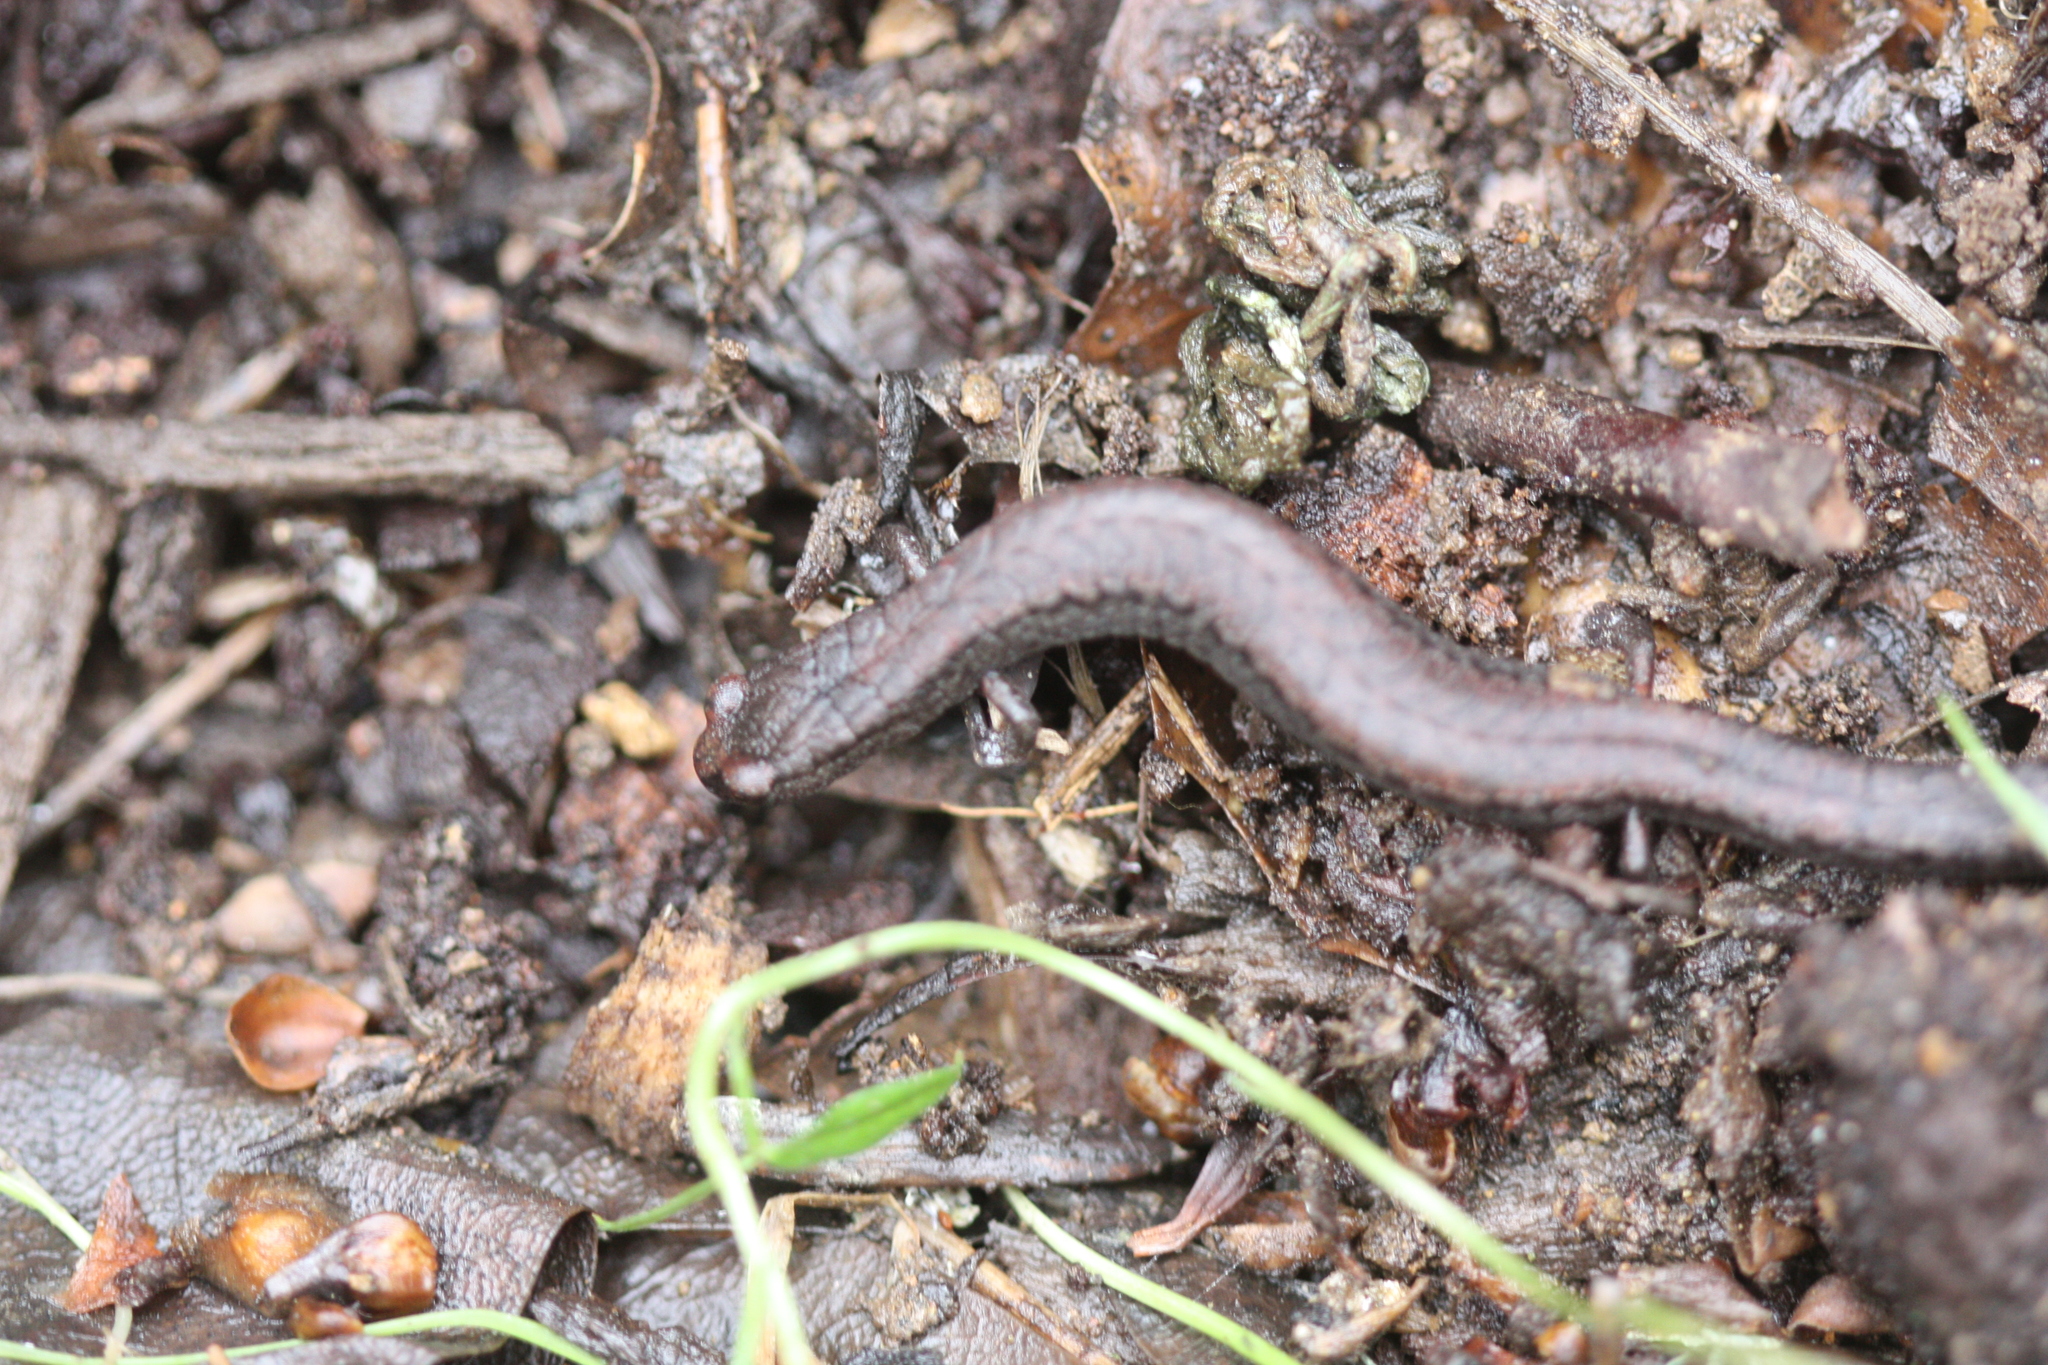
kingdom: Animalia
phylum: Chordata
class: Amphibia
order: Caudata
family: Plethodontidae
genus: Batrachoseps
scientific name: Batrachoseps attenuatus
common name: California slender salamander
